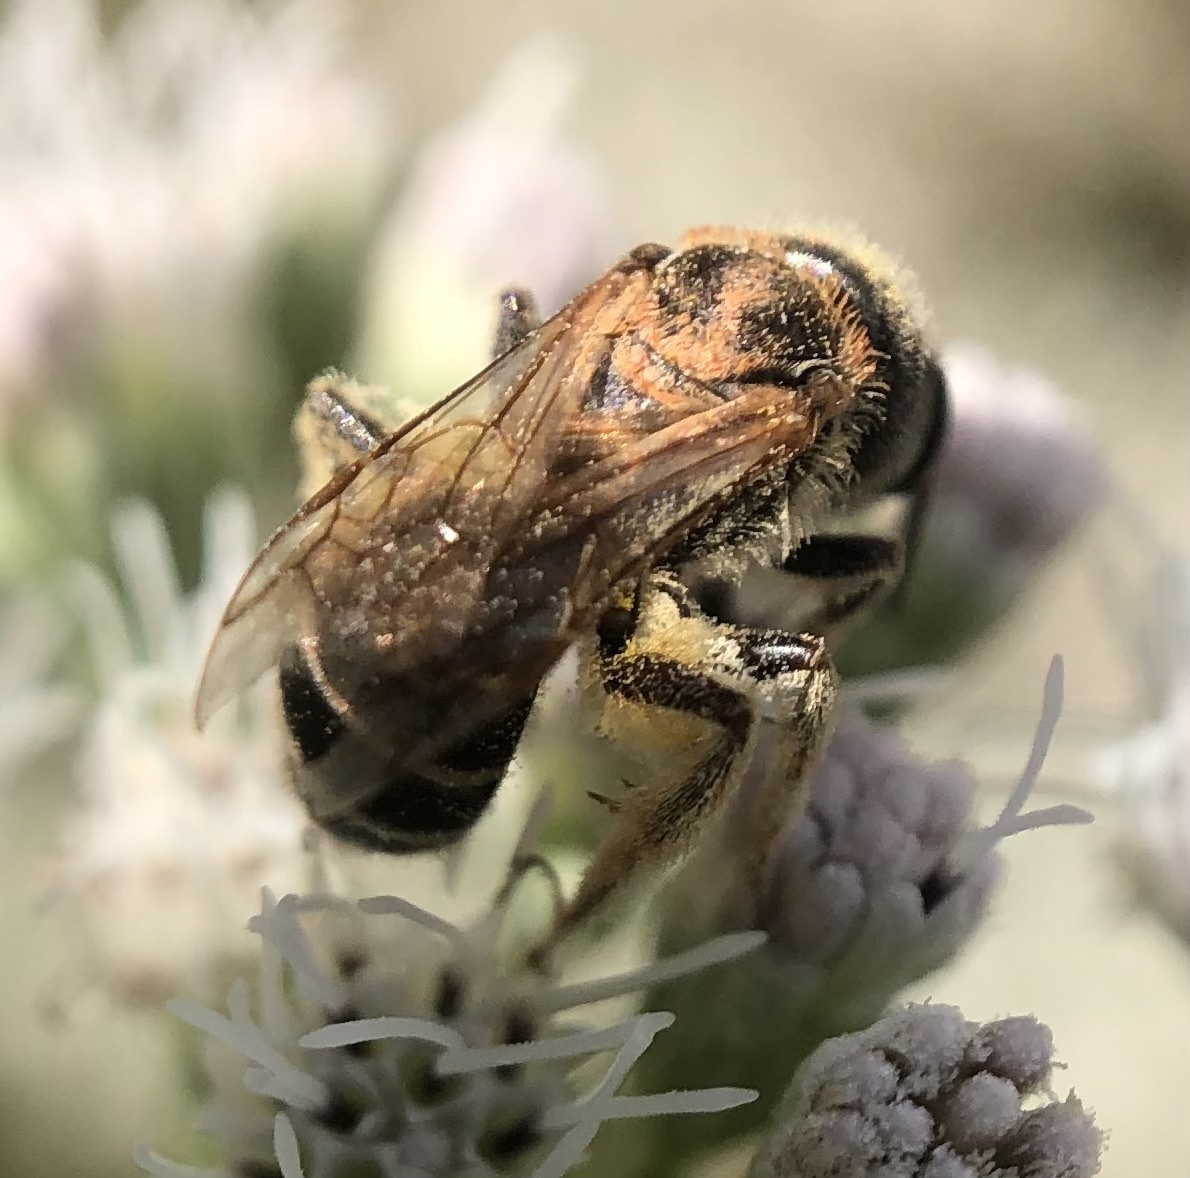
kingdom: Animalia
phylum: Arthropoda
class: Insecta
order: Hymenoptera
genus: Odontalictus
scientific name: Odontalictus
